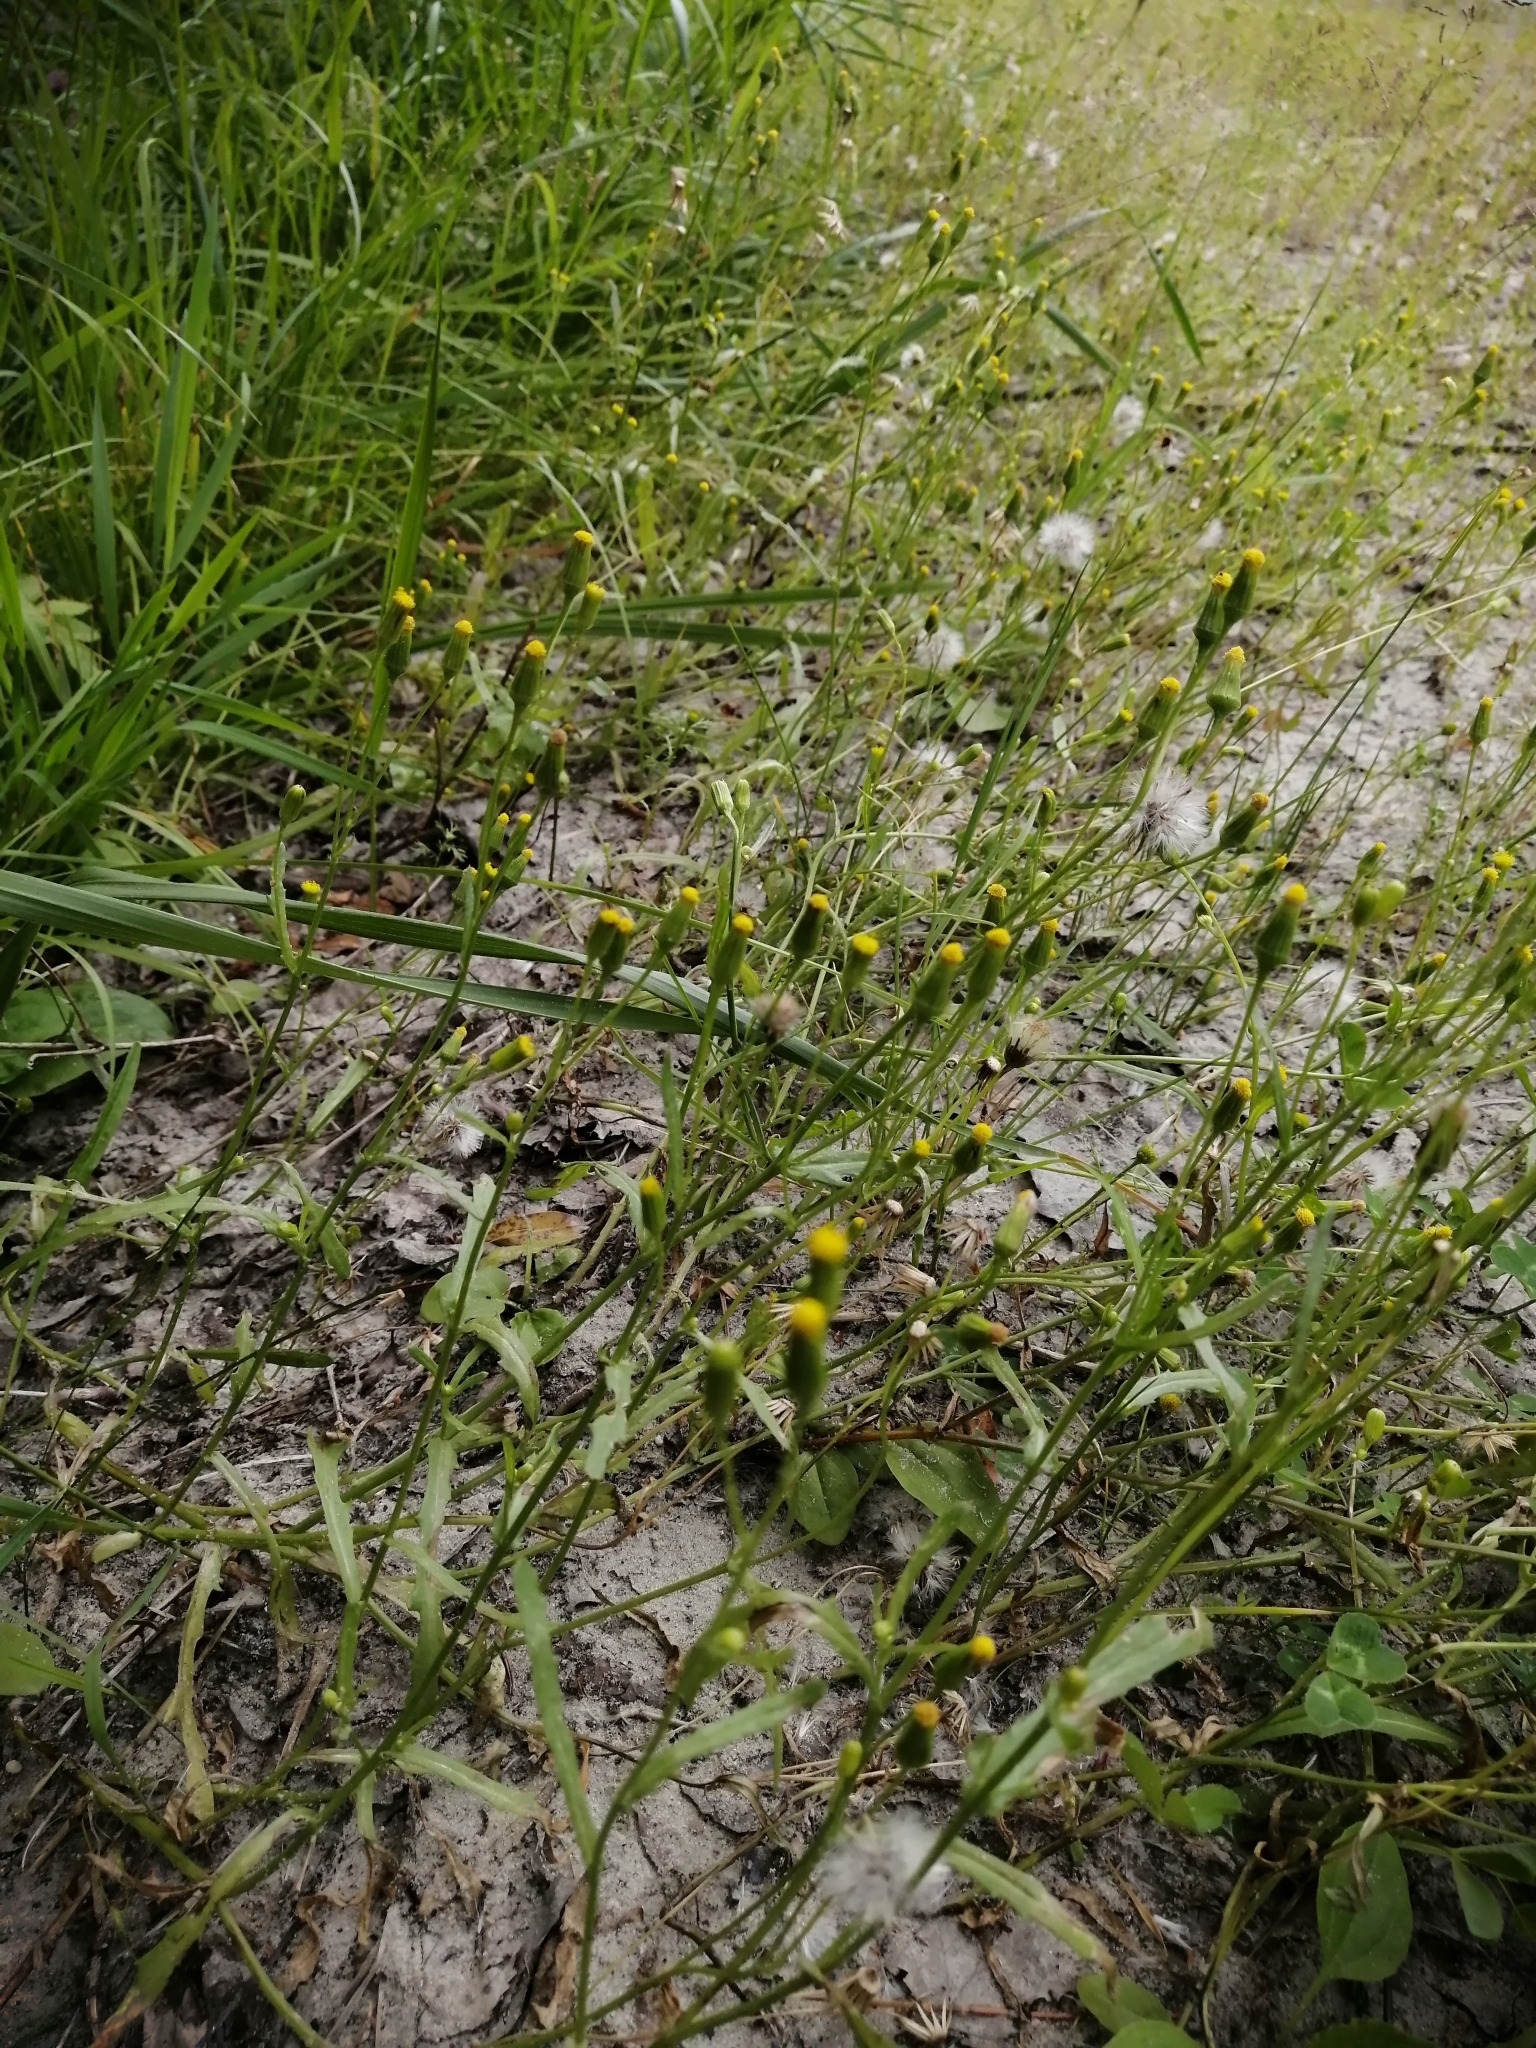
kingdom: Plantae
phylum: Tracheophyta
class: Magnoliopsida
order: Asterales
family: Asteraceae
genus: Senecio
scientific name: Senecio dubitabilis
